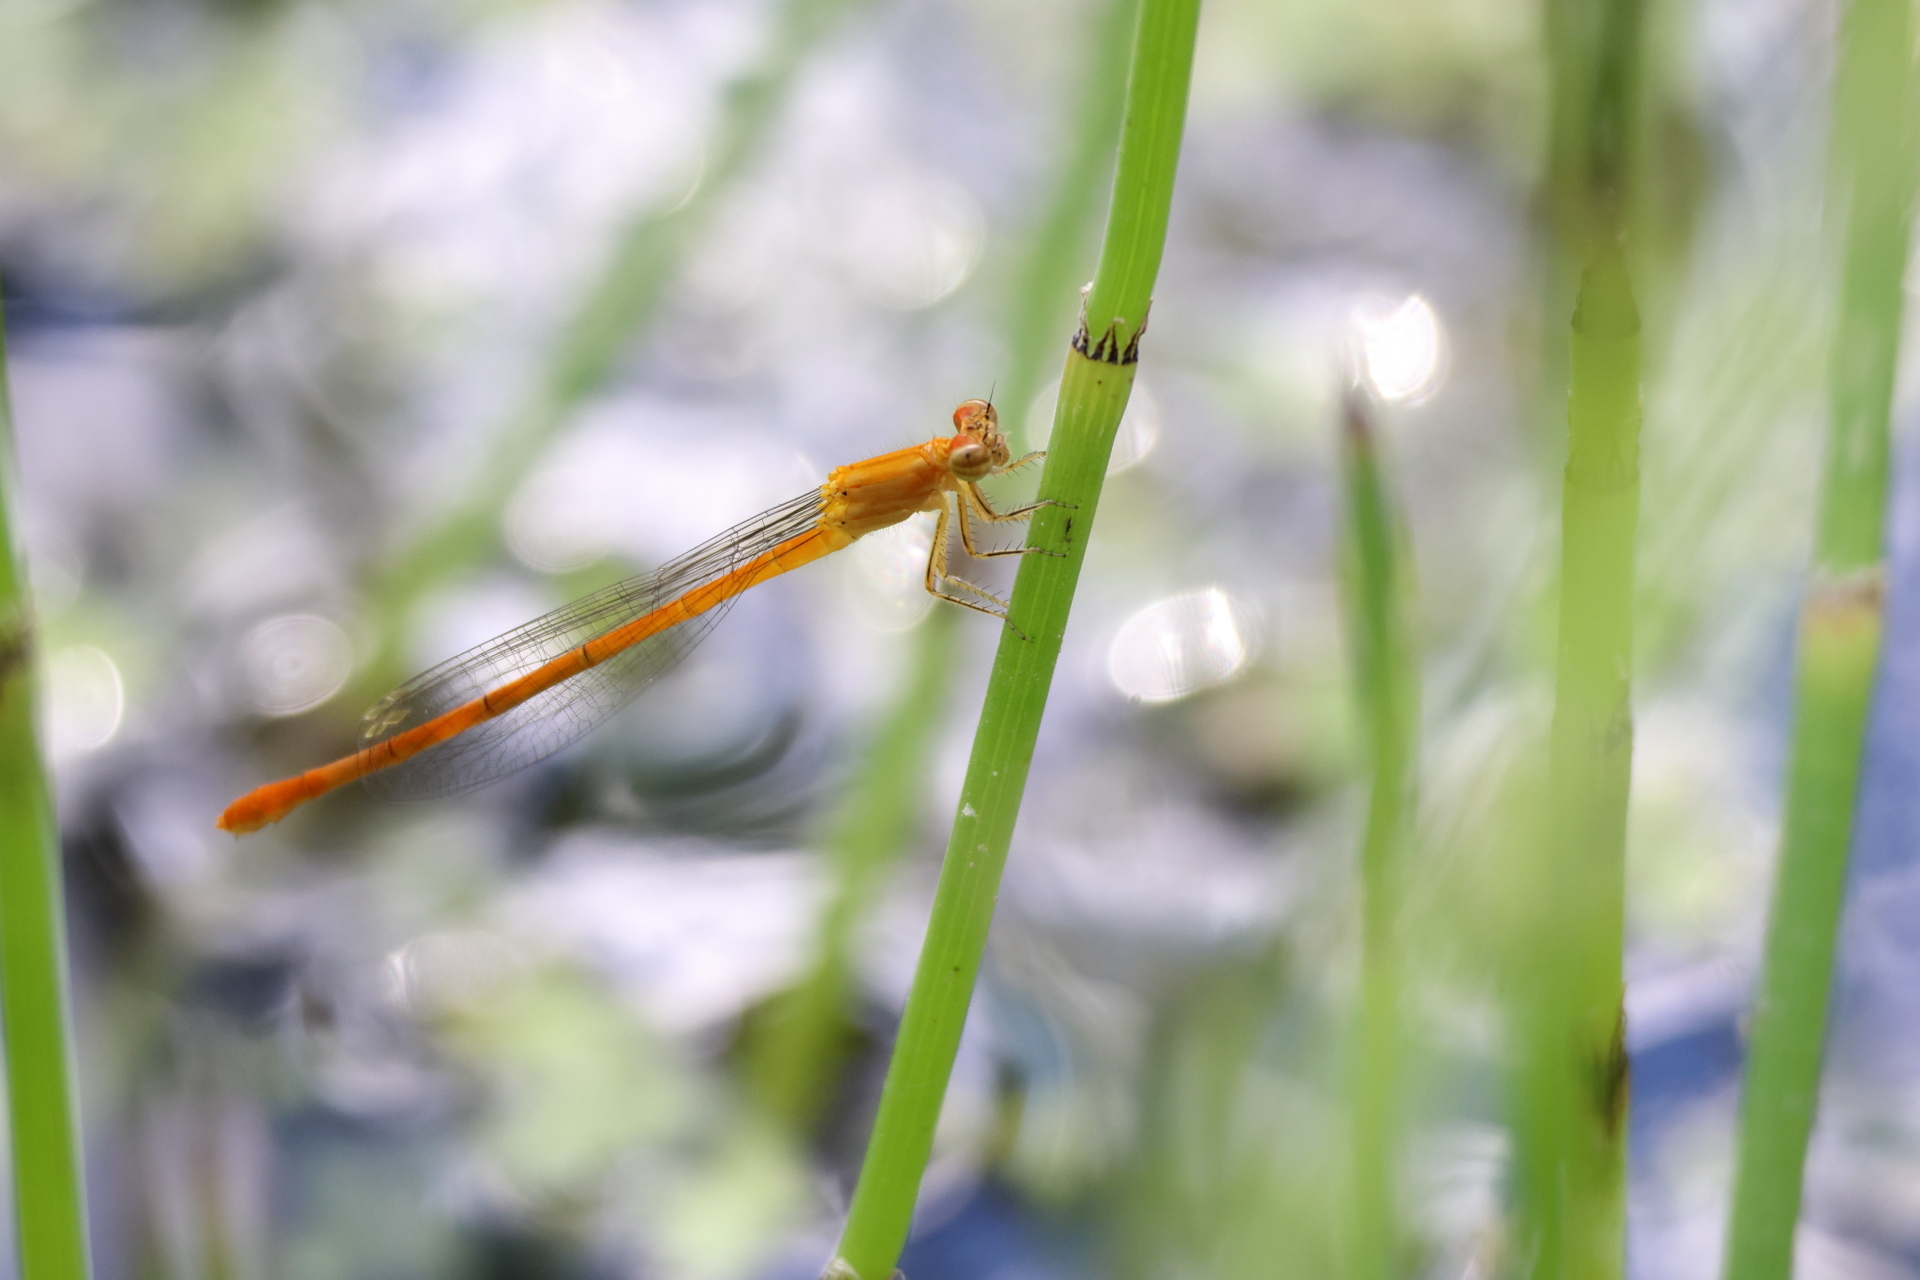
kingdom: Animalia
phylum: Arthropoda
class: Insecta
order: Odonata
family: Coenagrionidae
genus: Hesperagrion
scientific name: Hesperagrion heterodoxum
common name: Painted damsel
